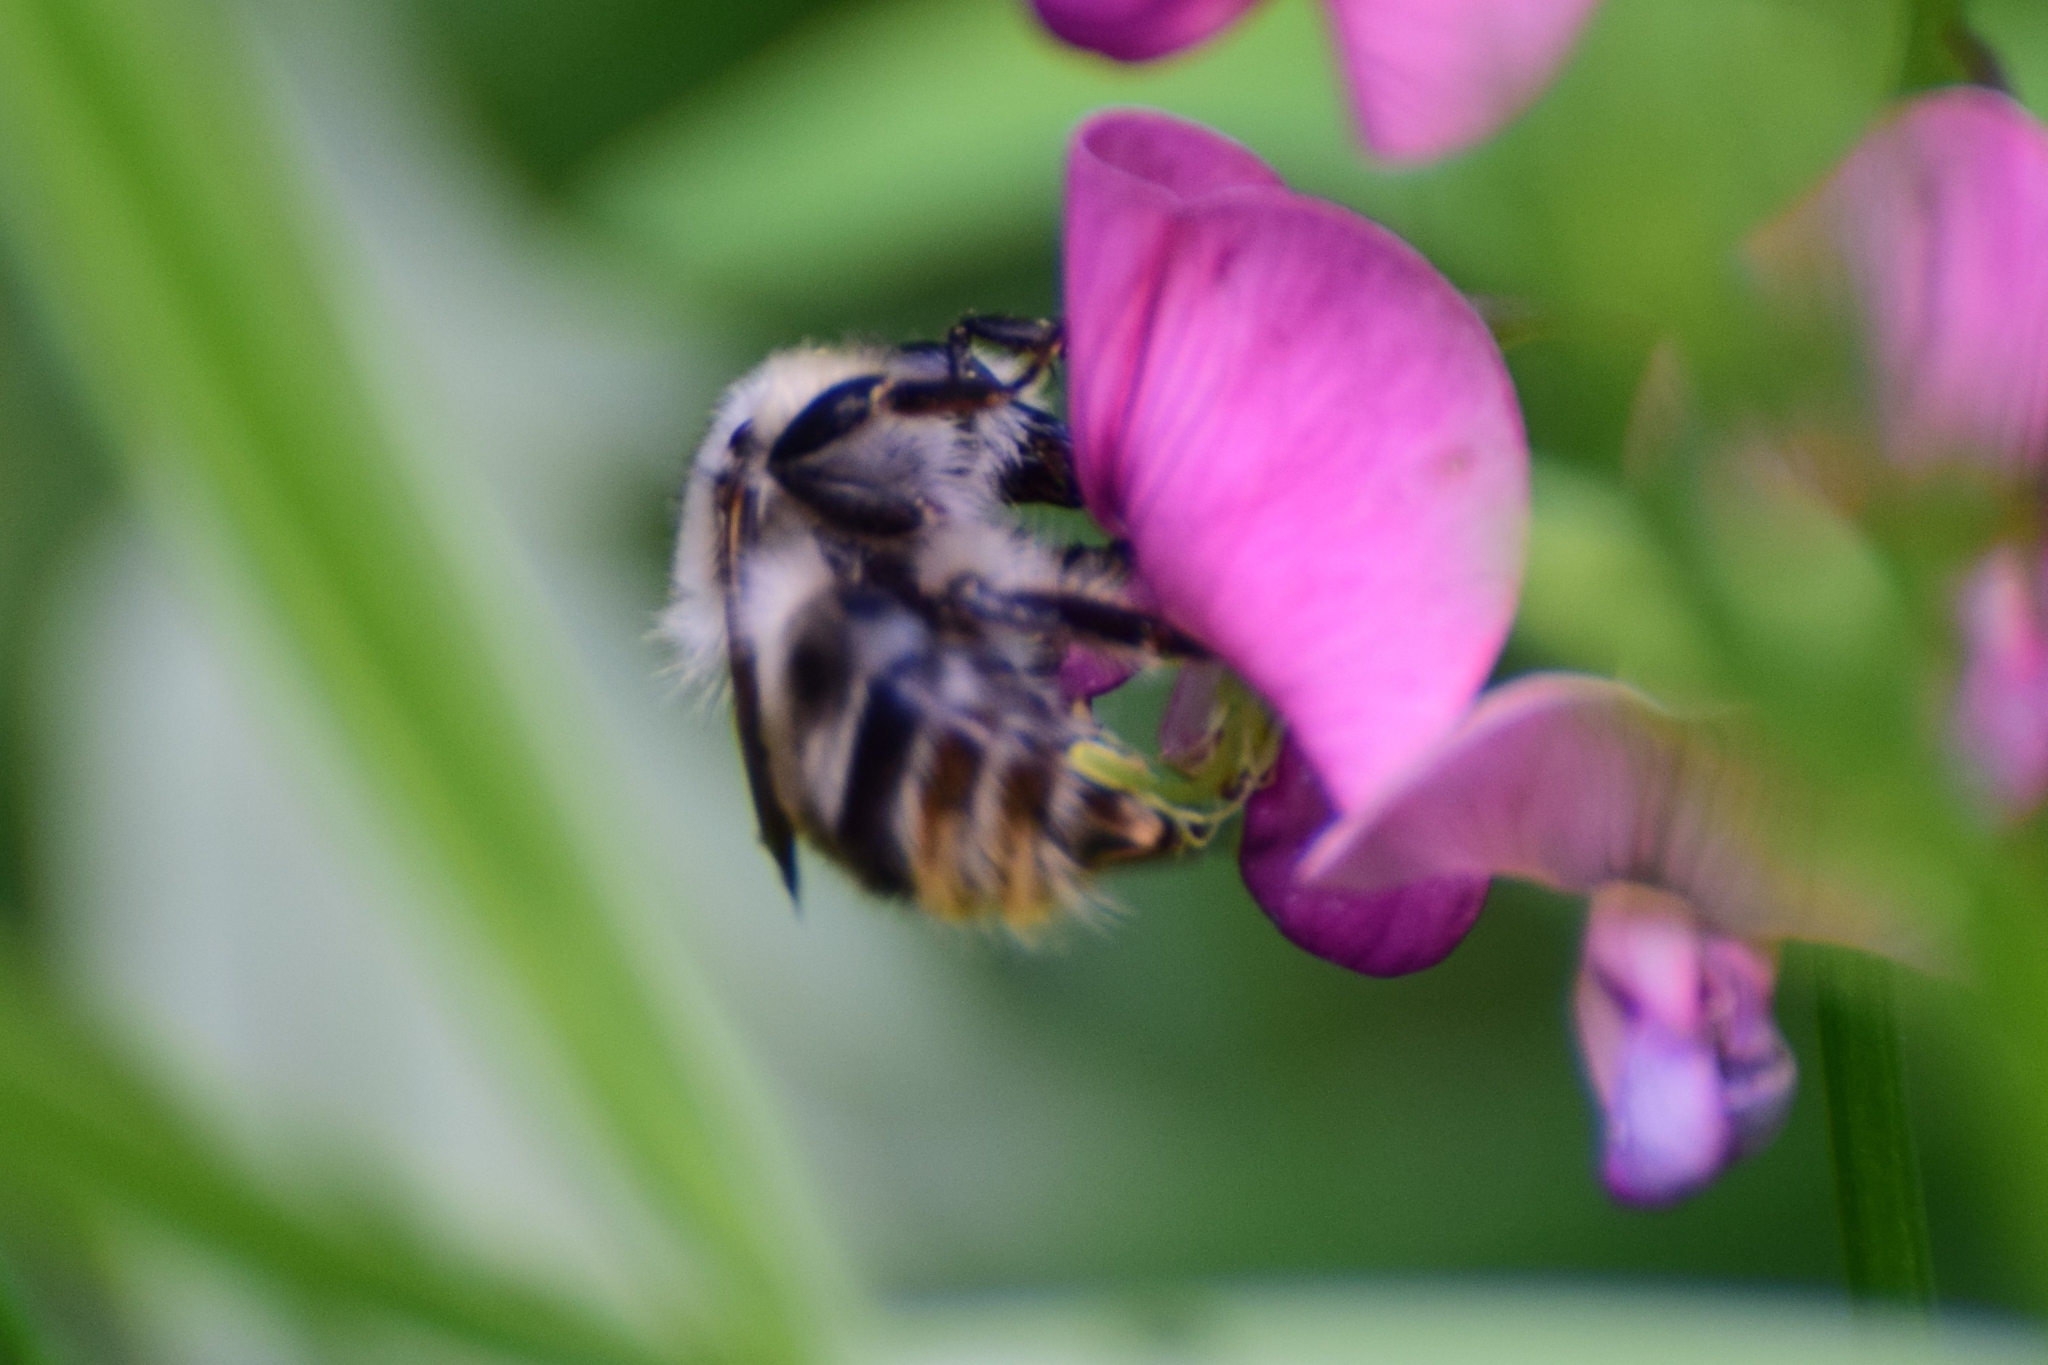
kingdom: Animalia
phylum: Arthropoda
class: Insecta
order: Hymenoptera
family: Apidae
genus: Bombus
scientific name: Bombus sylvarum
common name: Shrill carder bee
